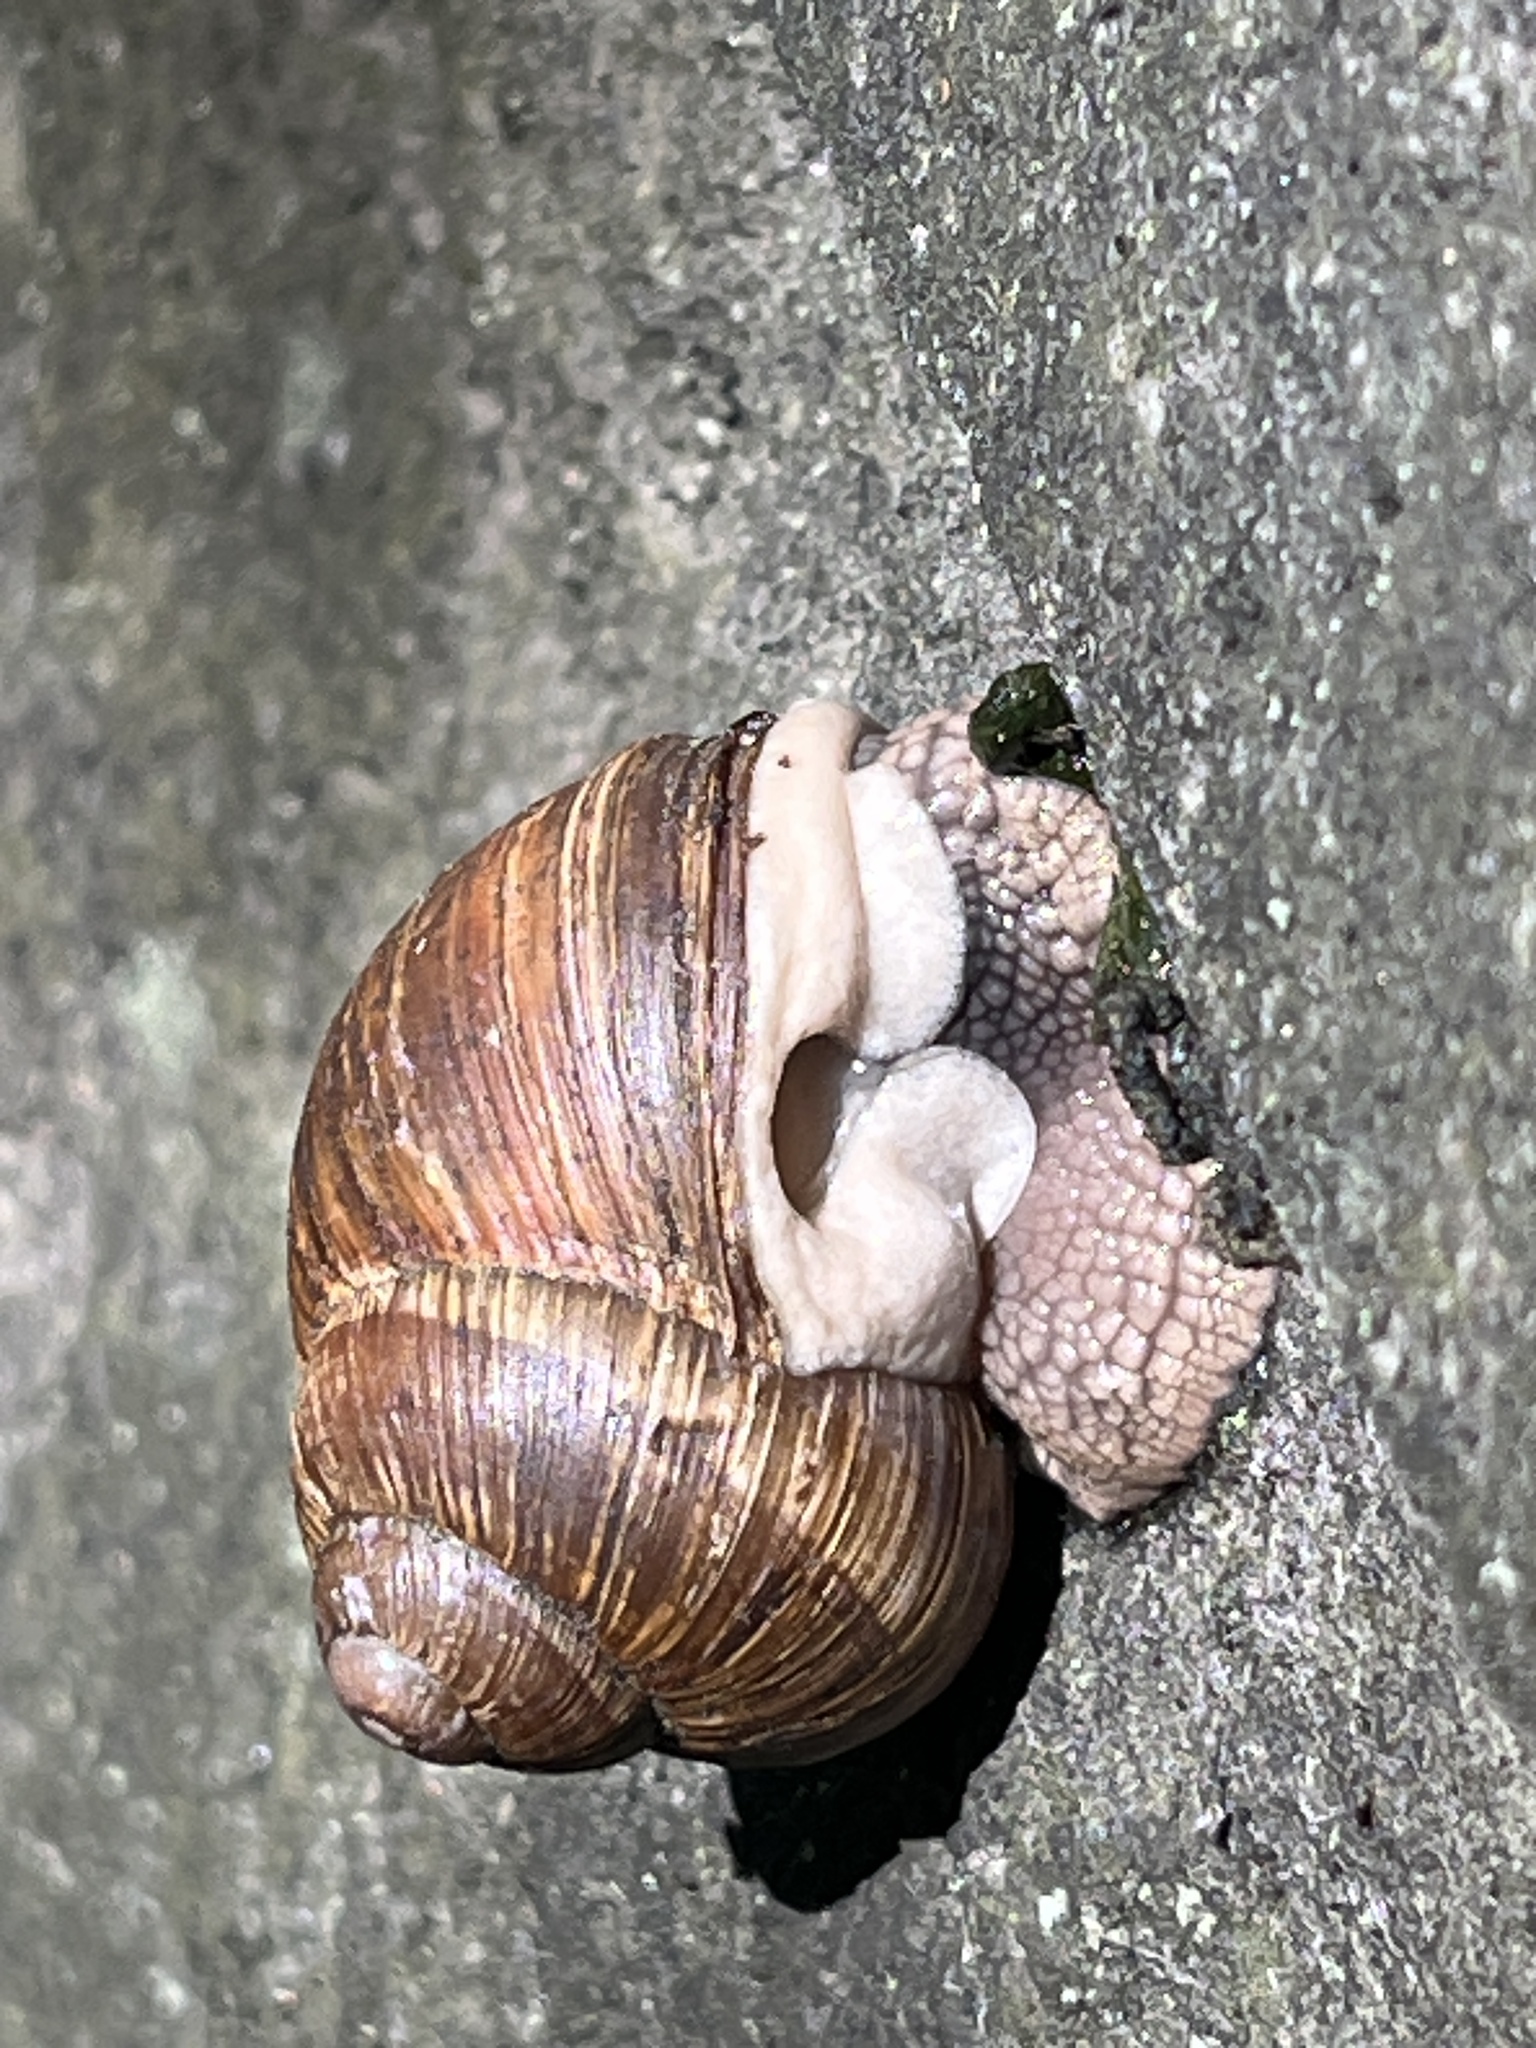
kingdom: Animalia
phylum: Mollusca
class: Gastropoda
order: Stylommatophora
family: Helicidae
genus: Helix
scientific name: Helix pomatia
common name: Roman snail
